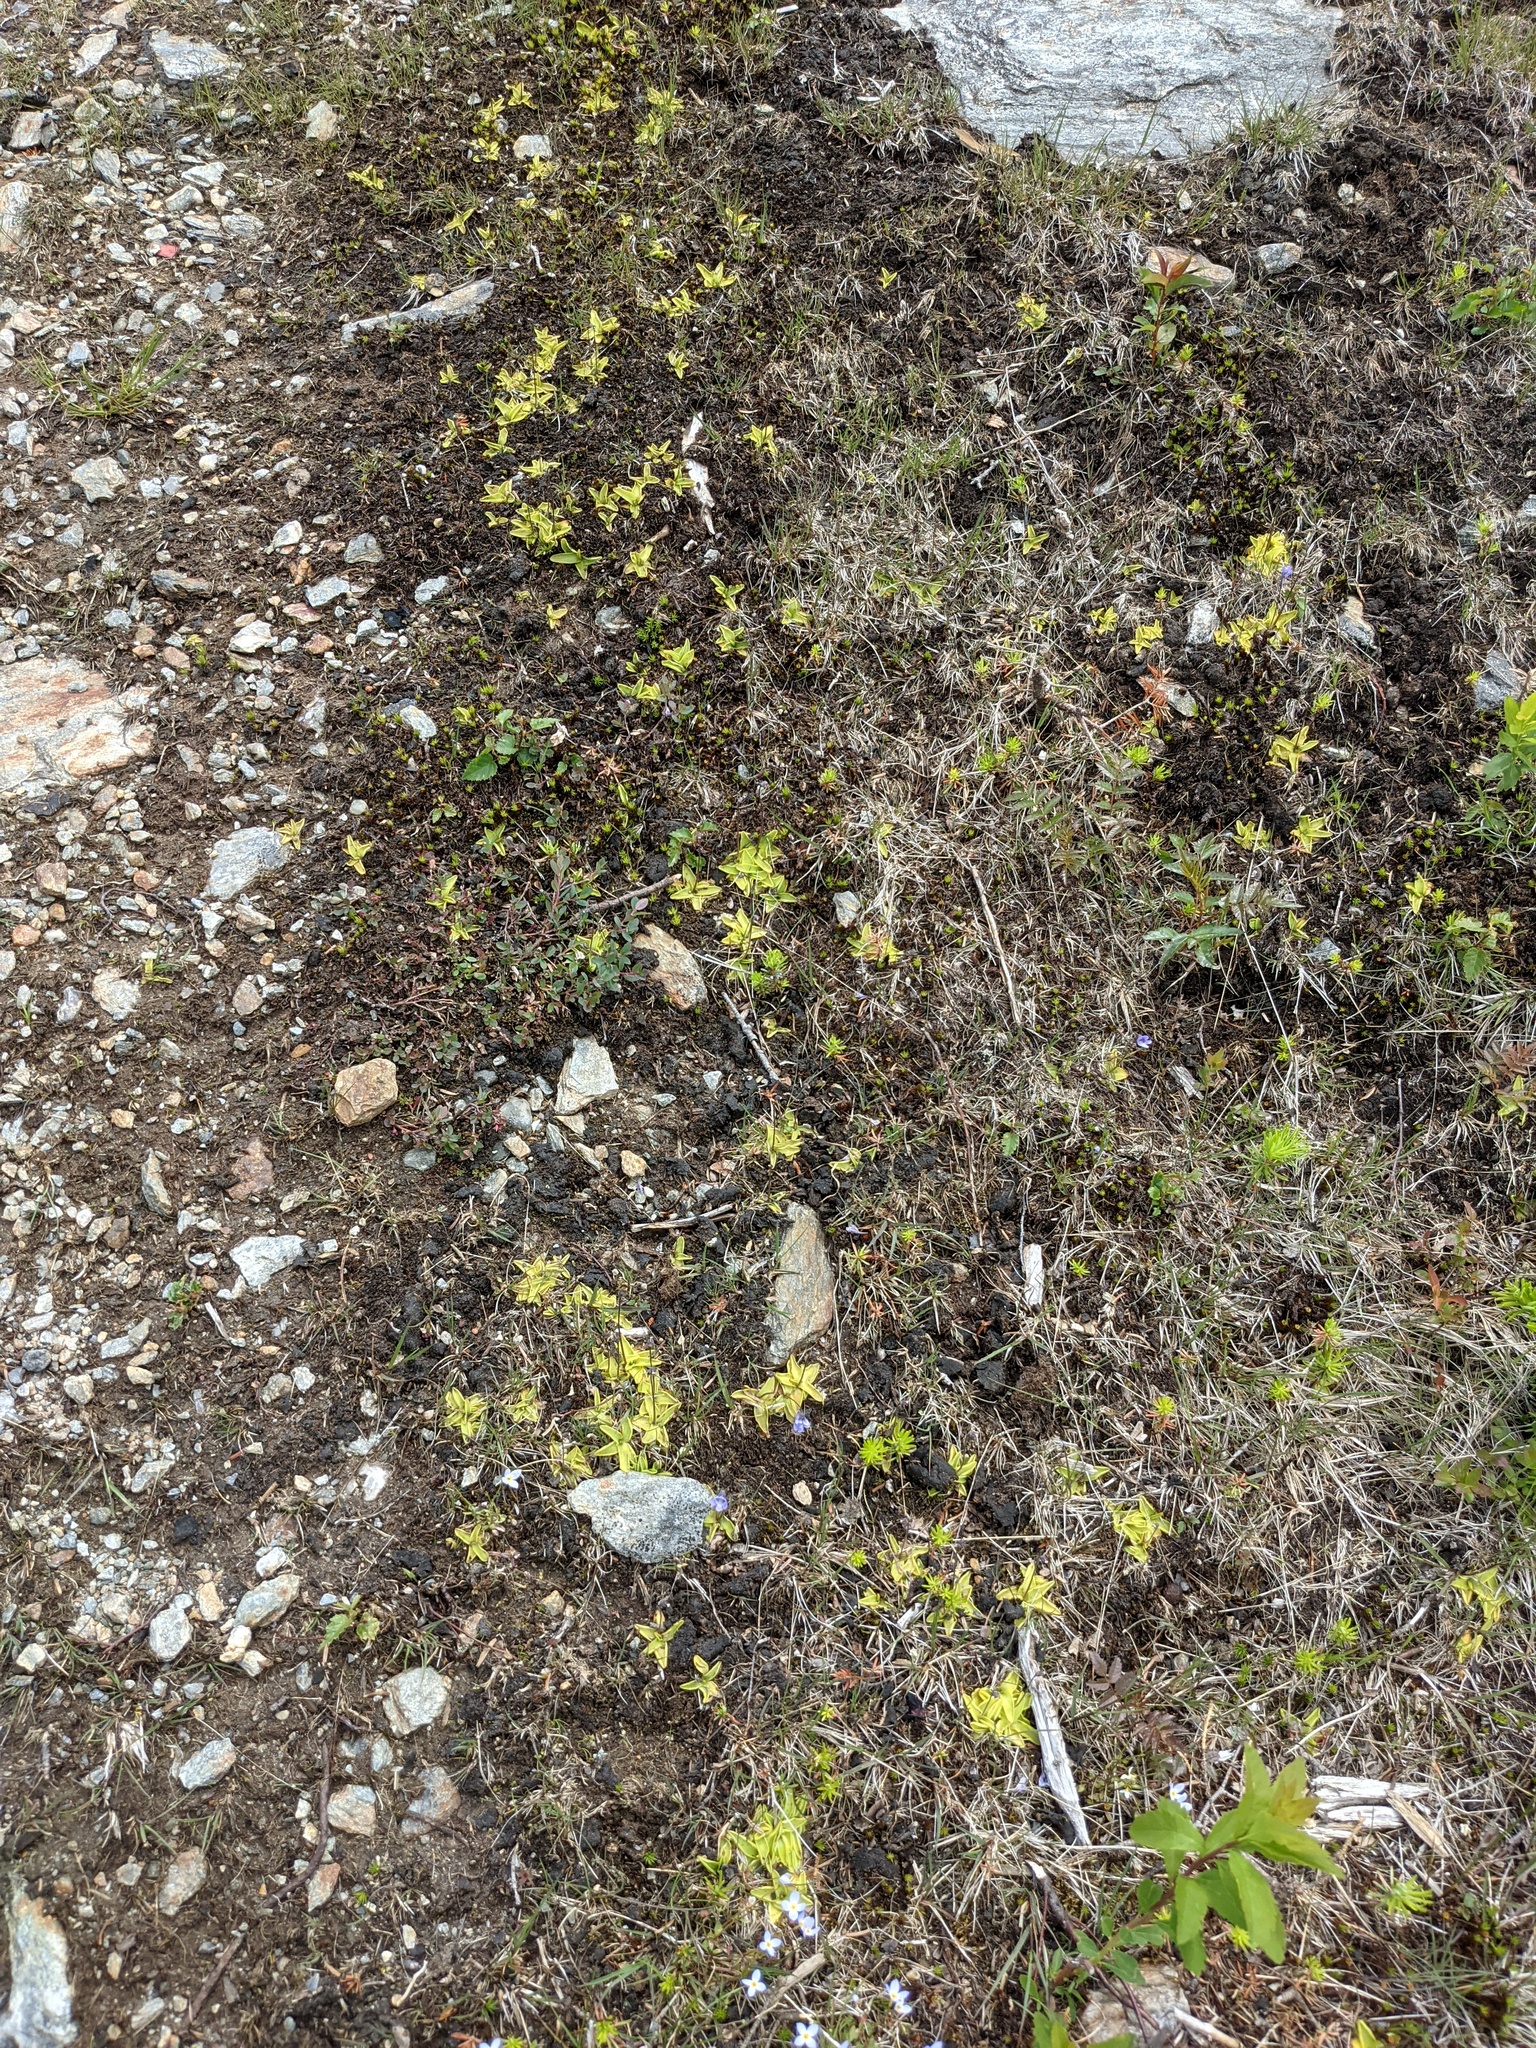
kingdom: Plantae
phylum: Tracheophyta
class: Magnoliopsida
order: Lamiales
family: Lentibulariaceae
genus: Pinguicula
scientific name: Pinguicula vulgaris
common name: Common butterwort
